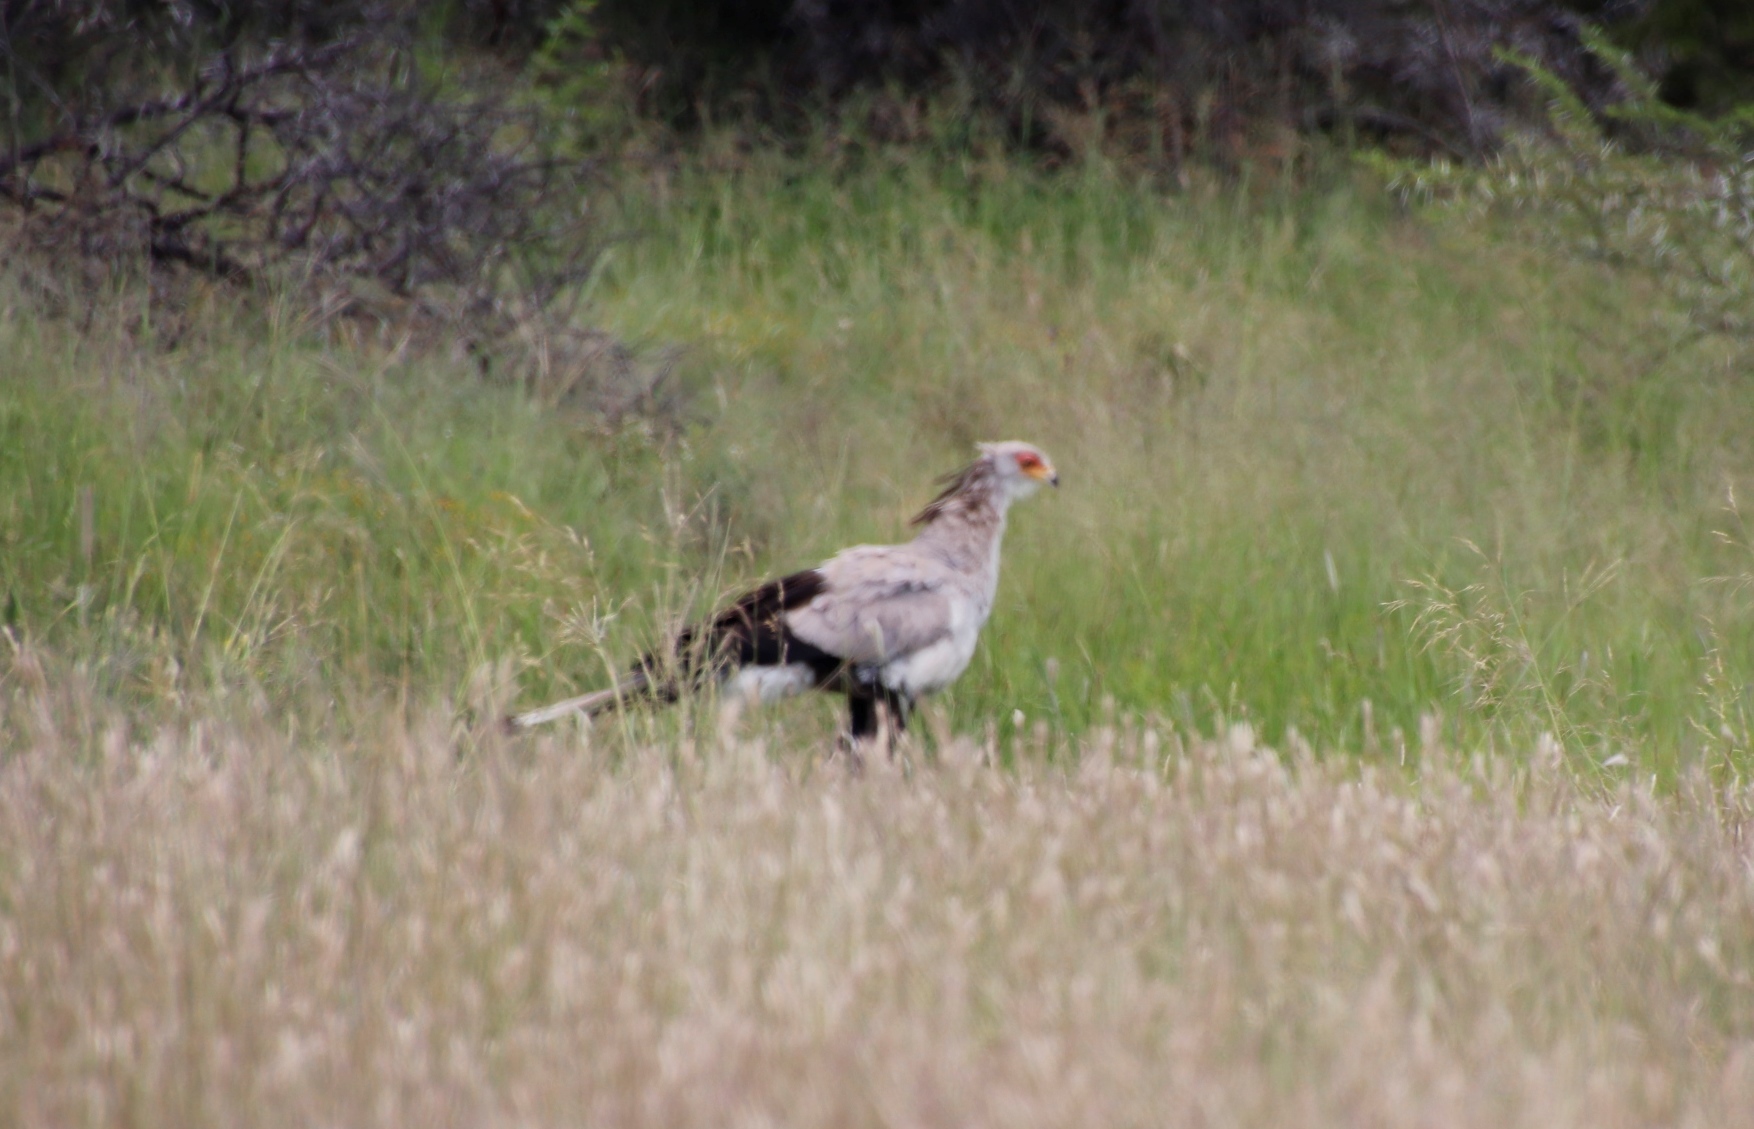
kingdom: Animalia
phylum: Chordata
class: Aves
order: Accipitriformes
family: Sagittariidae
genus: Sagittarius
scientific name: Sagittarius serpentarius
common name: Secretarybird
